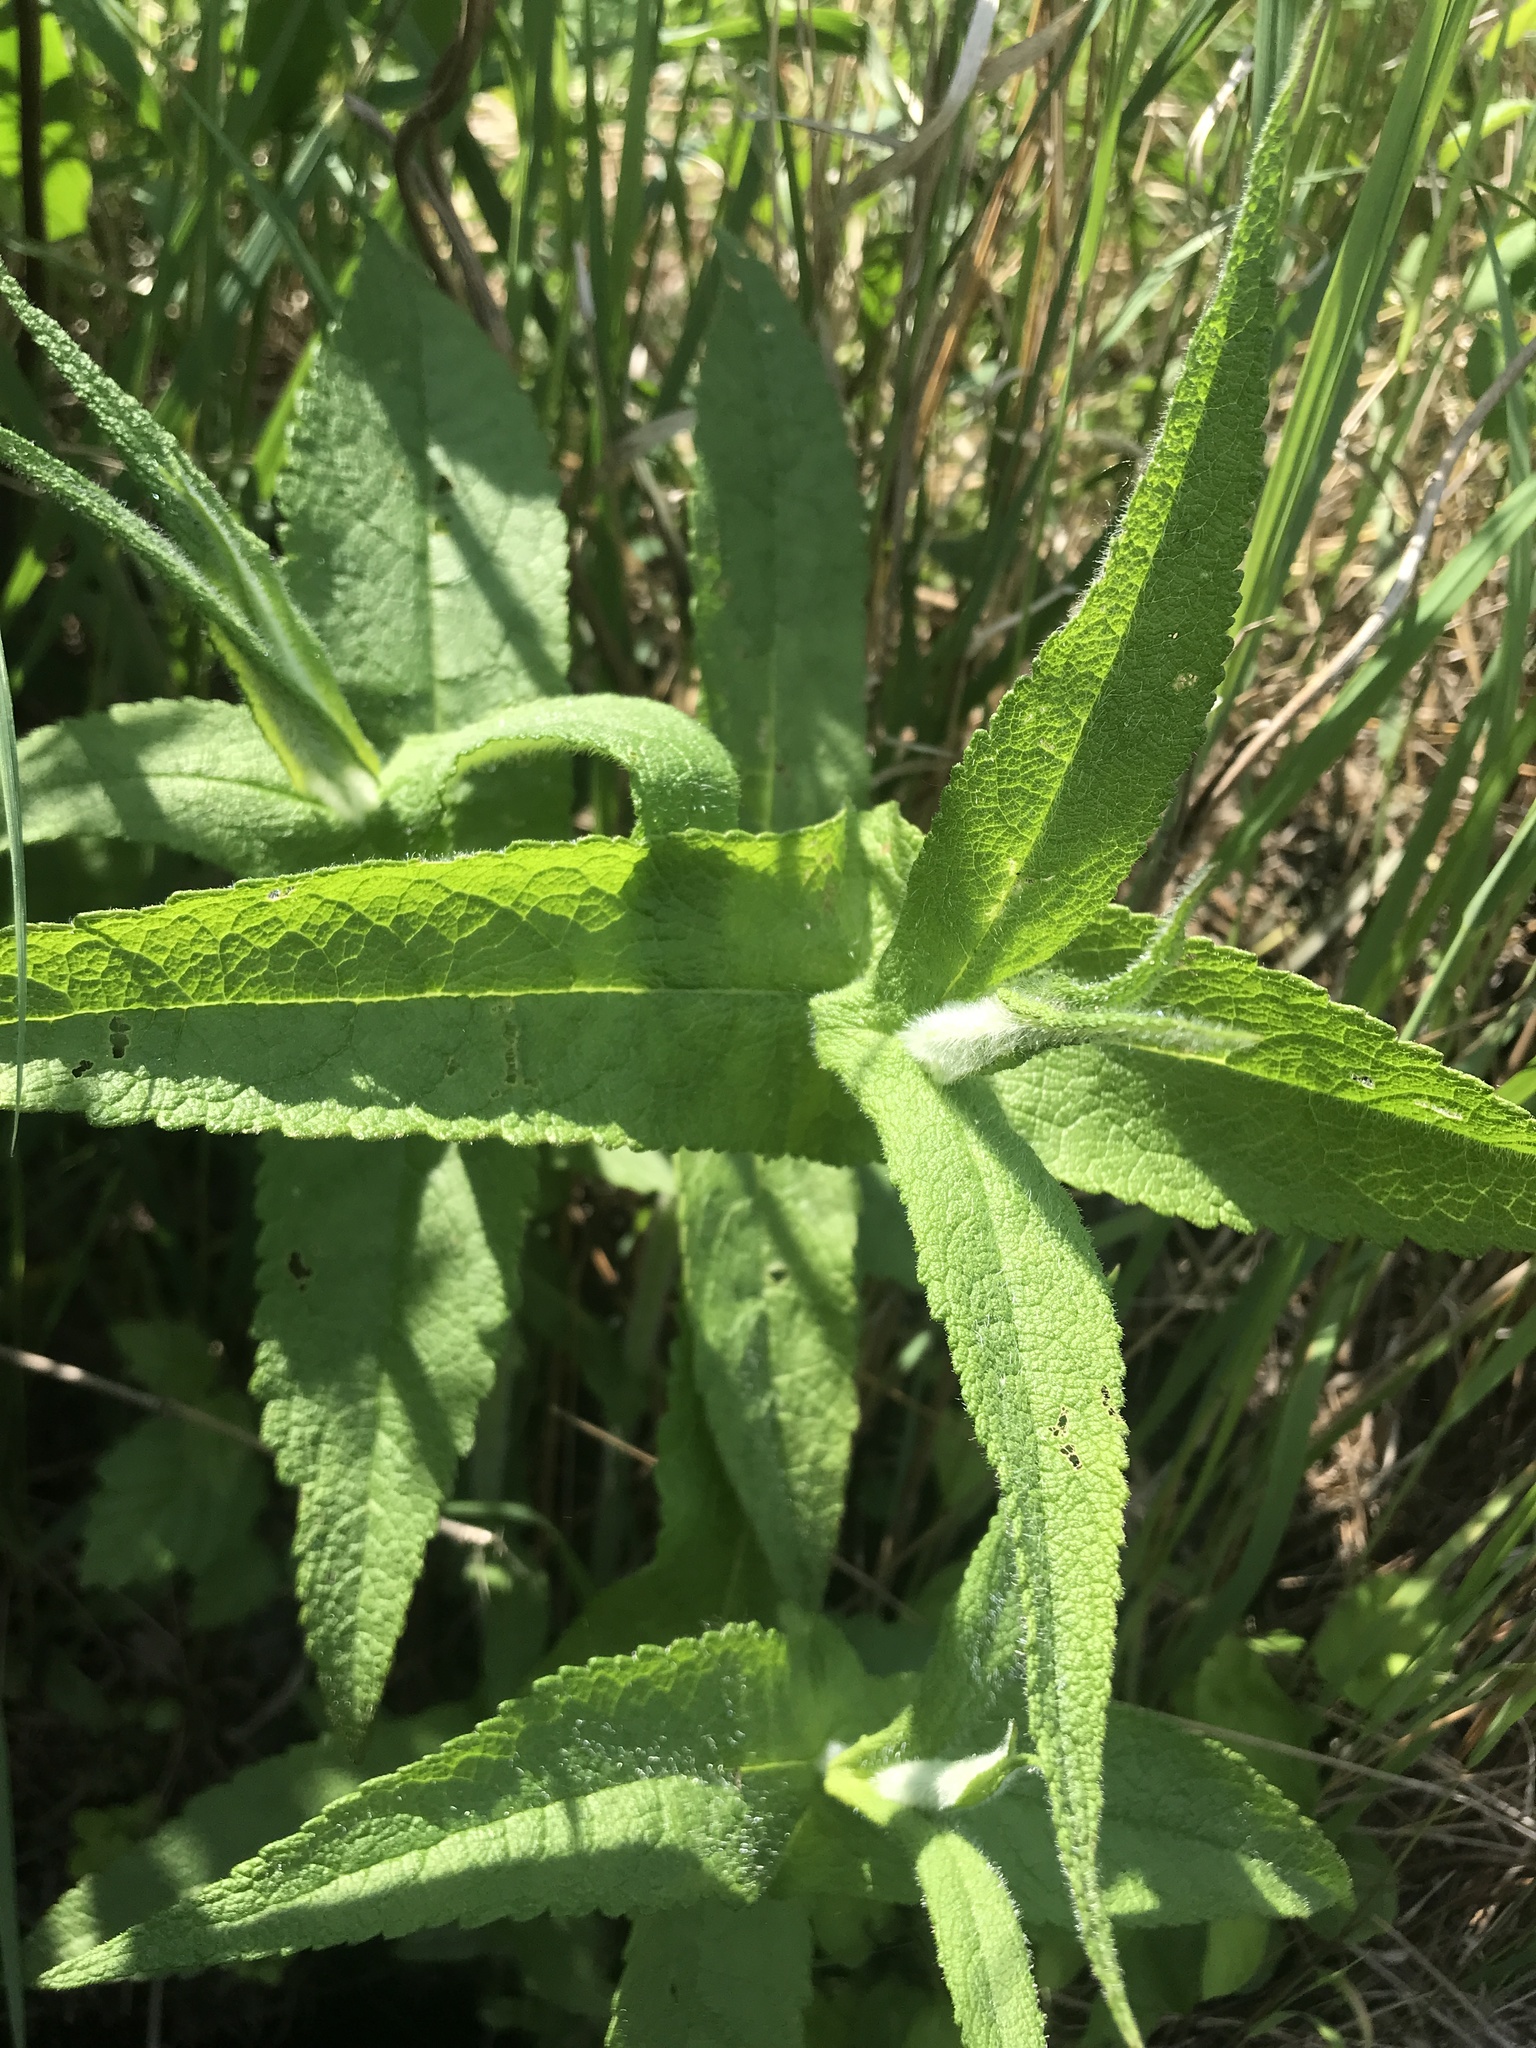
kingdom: Plantae
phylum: Tracheophyta
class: Magnoliopsida
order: Asterales
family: Asteraceae
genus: Eupatorium
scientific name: Eupatorium perfoliatum
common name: Boneset
